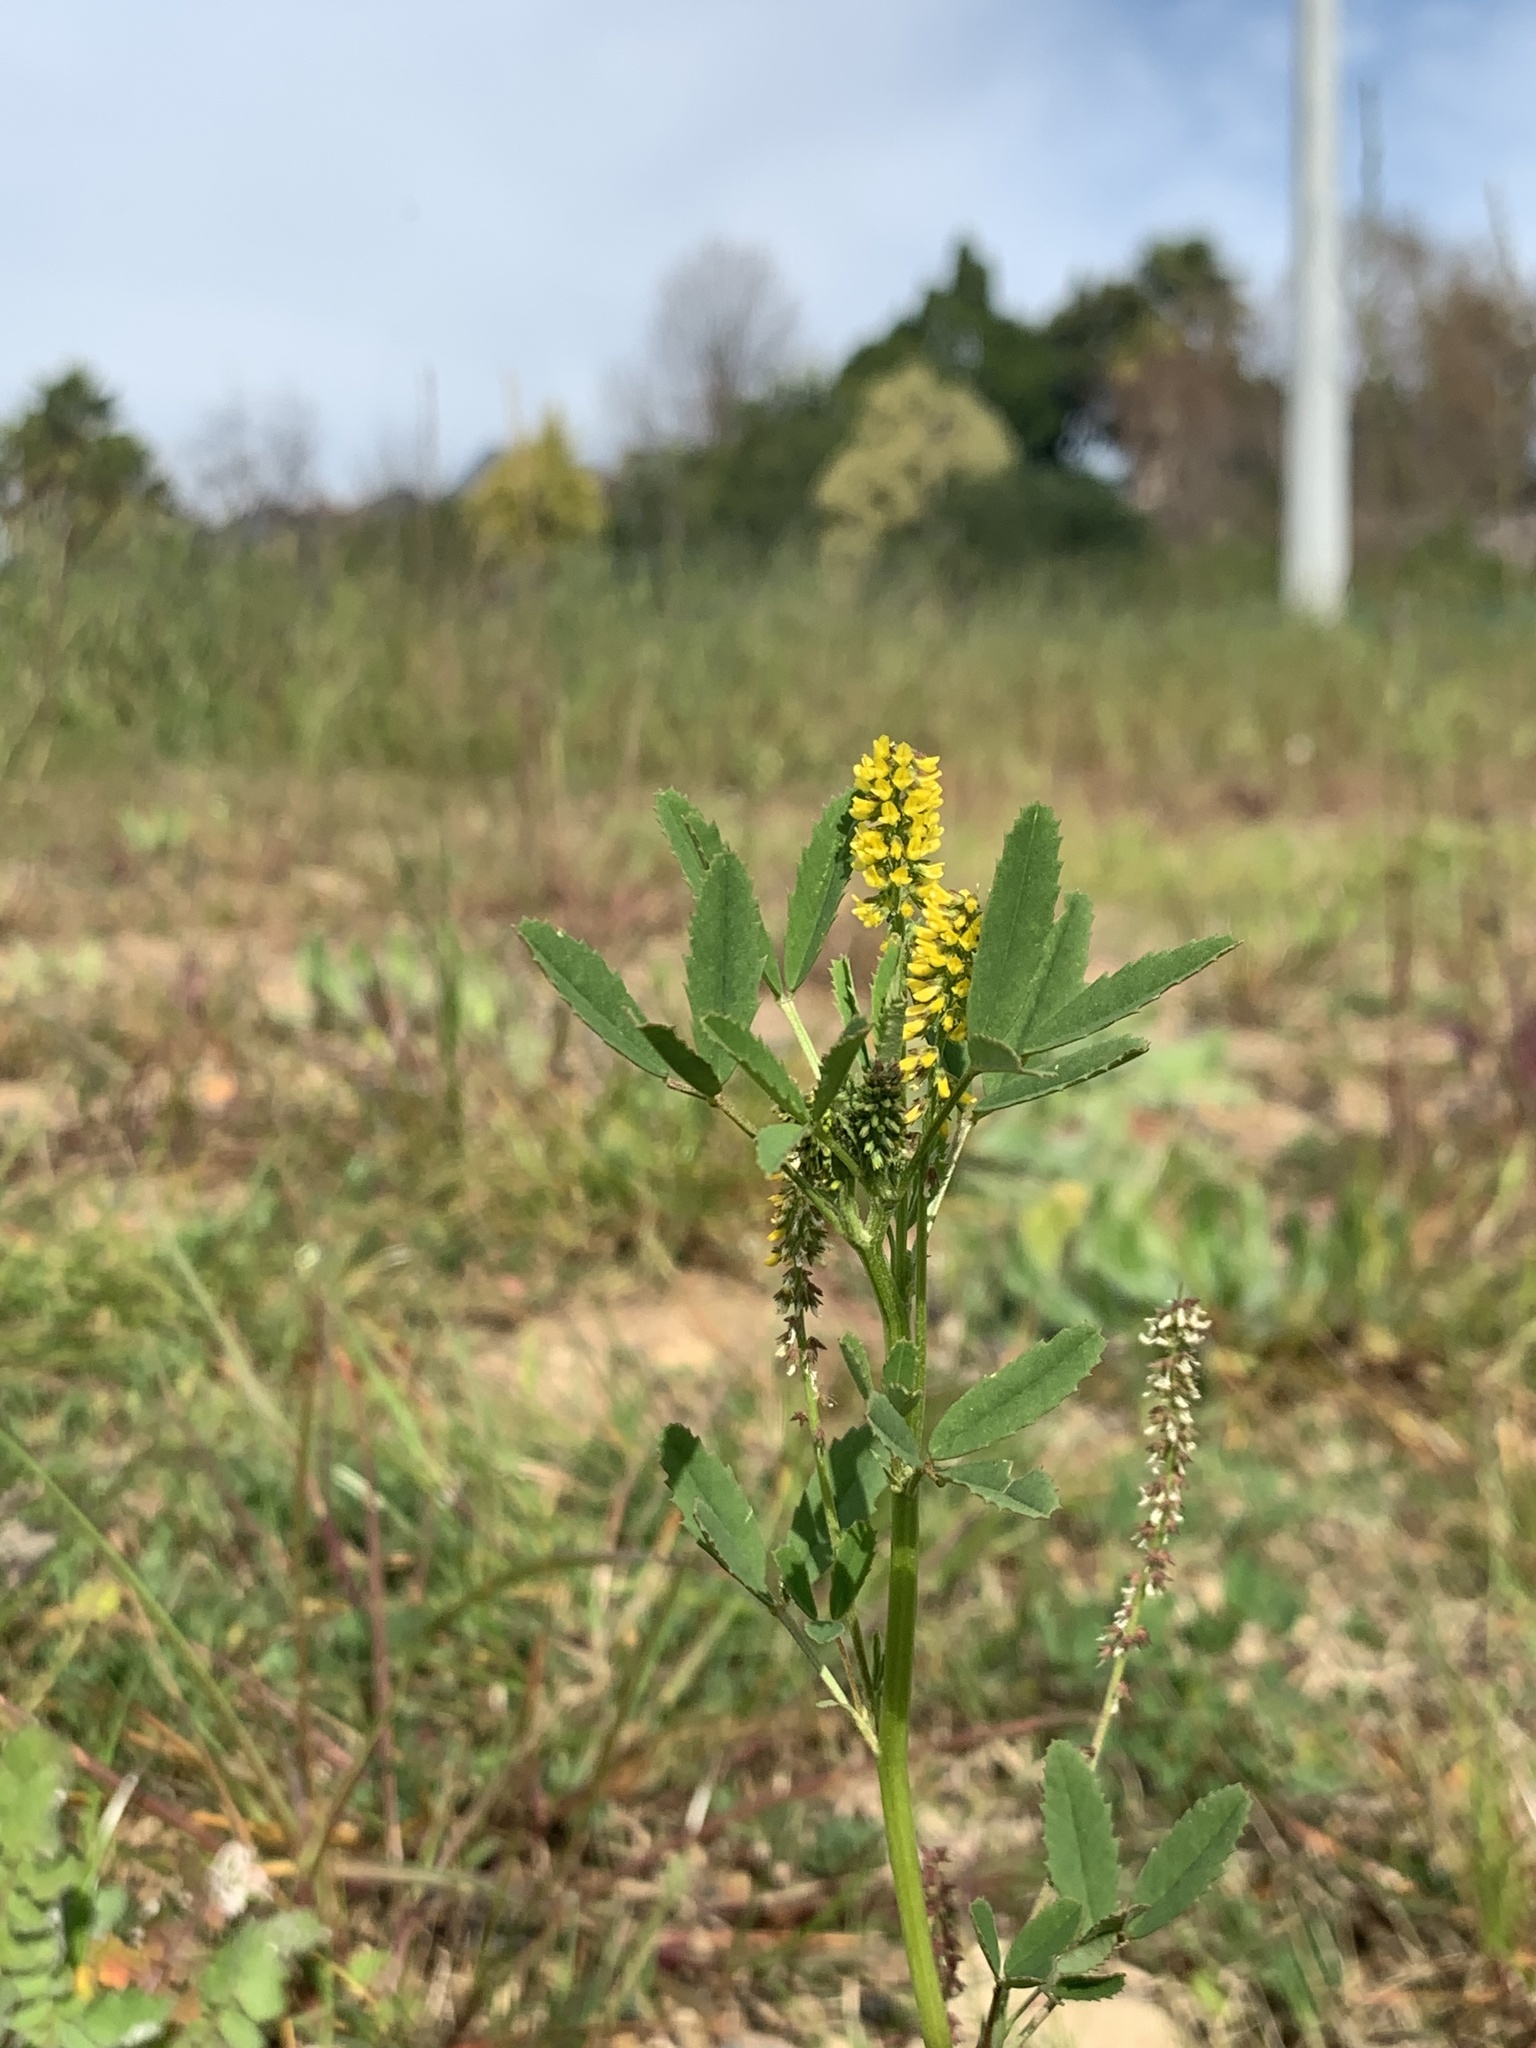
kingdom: Plantae
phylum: Tracheophyta
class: Magnoliopsida
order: Fabales
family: Fabaceae
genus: Melilotus
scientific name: Melilotus indicus
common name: Small melilot
